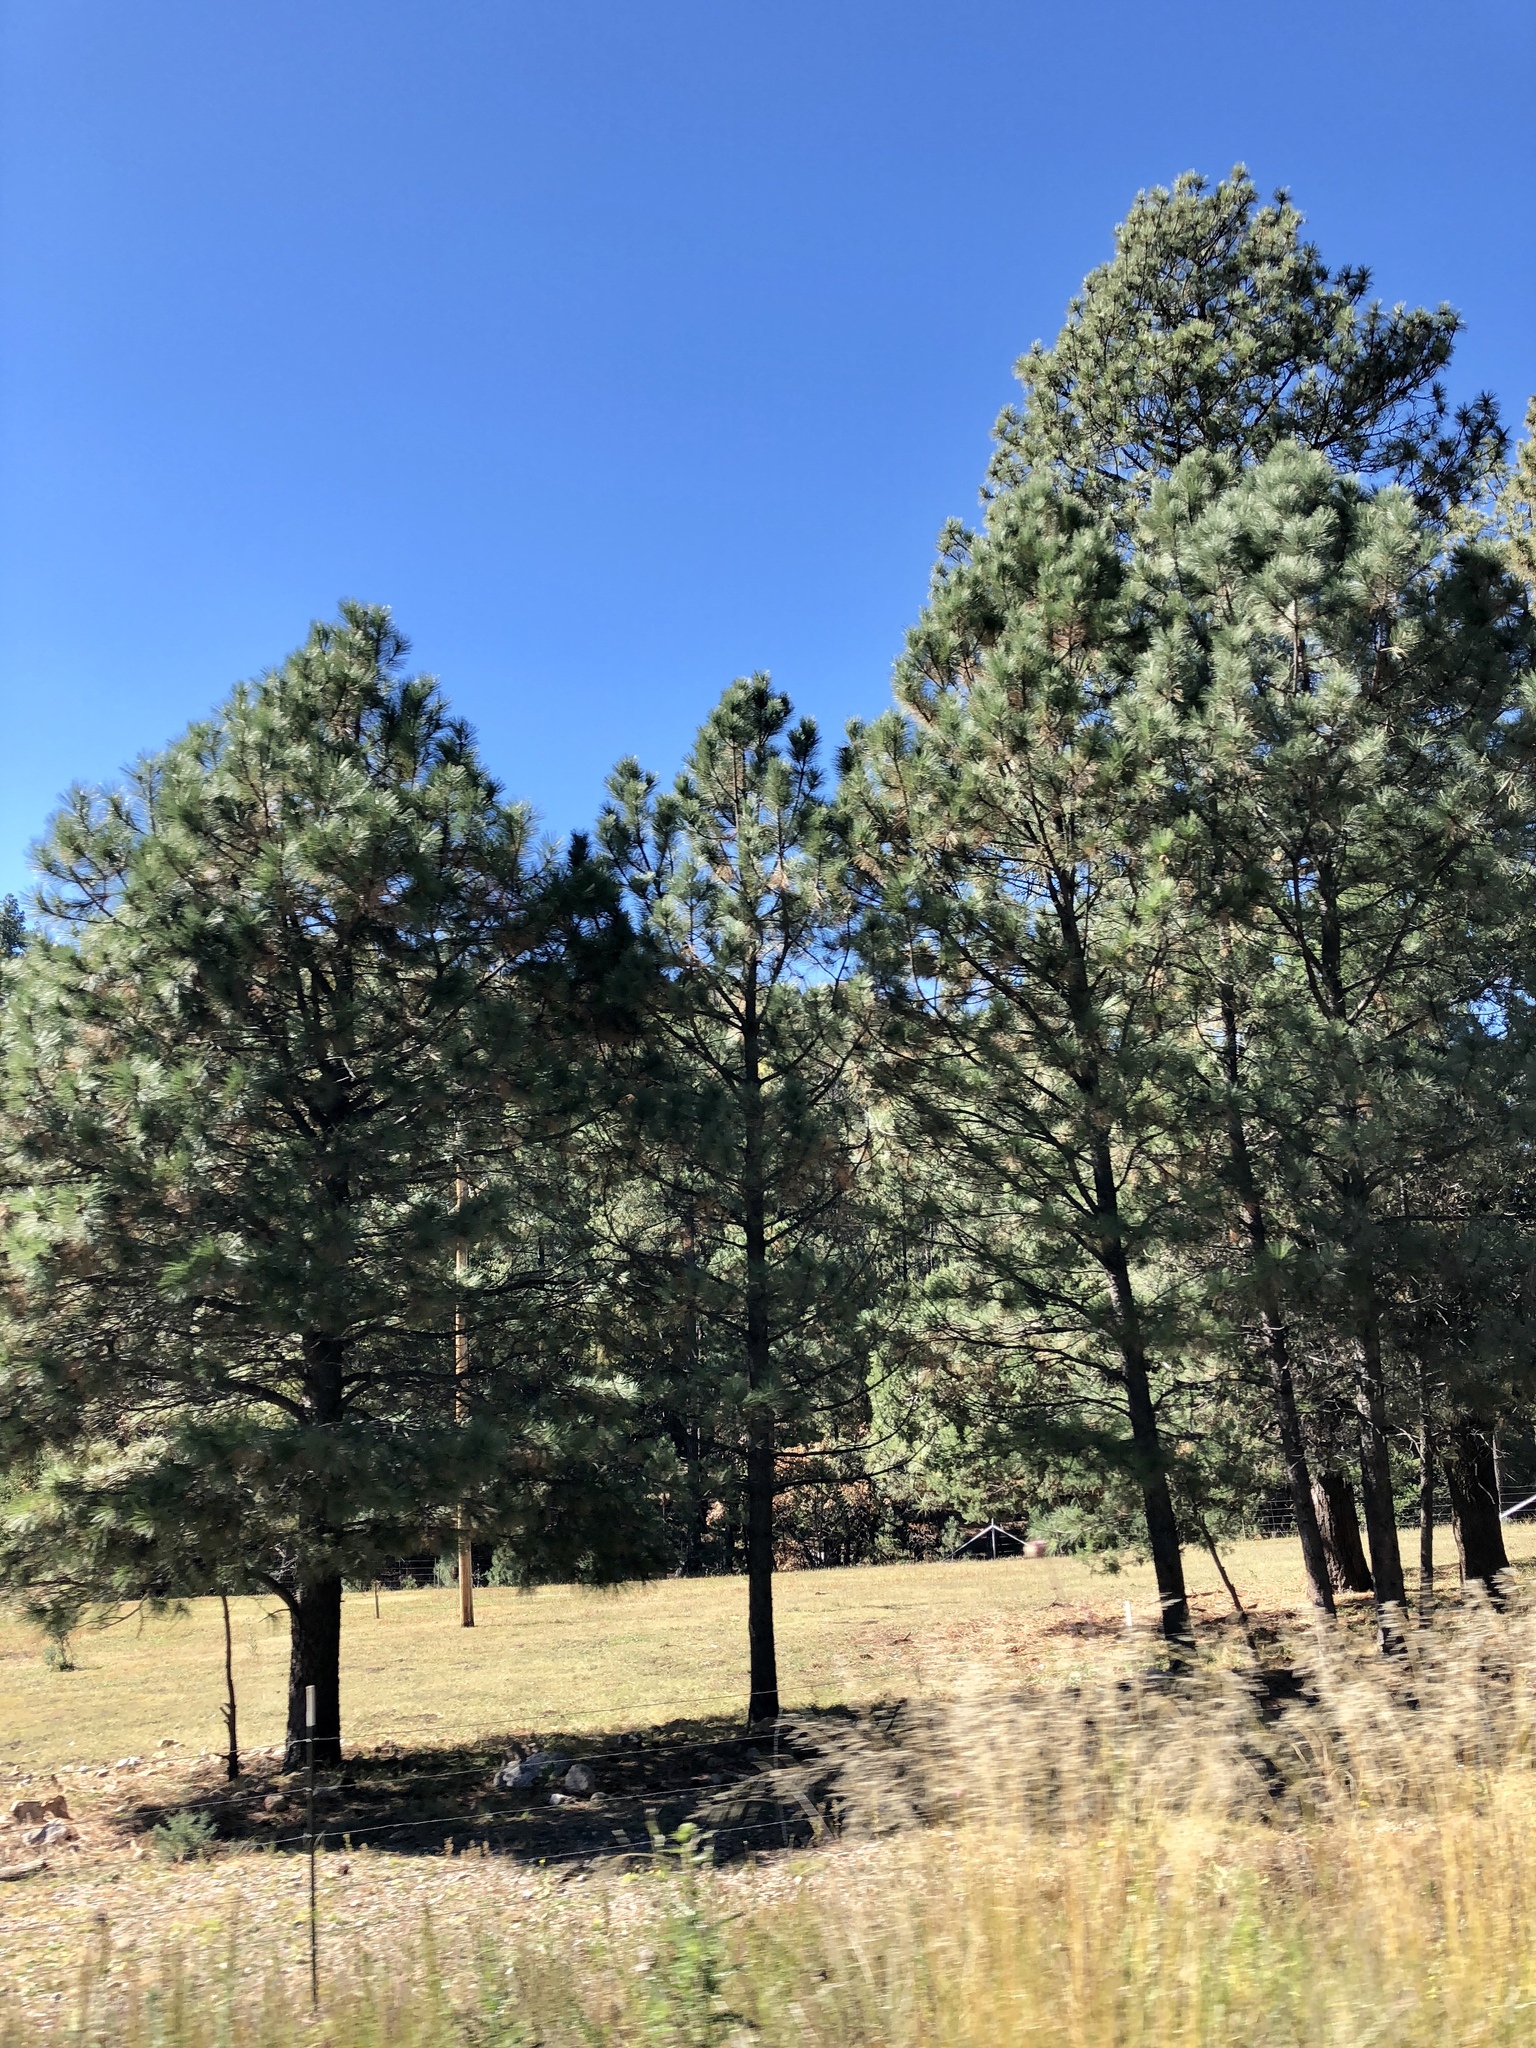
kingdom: Plantae
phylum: Tracheophyta
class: Pinopsida
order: Pinales
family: Pinaceae
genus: Pinus
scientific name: Pinus ponderosa
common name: Western yellow-pine
